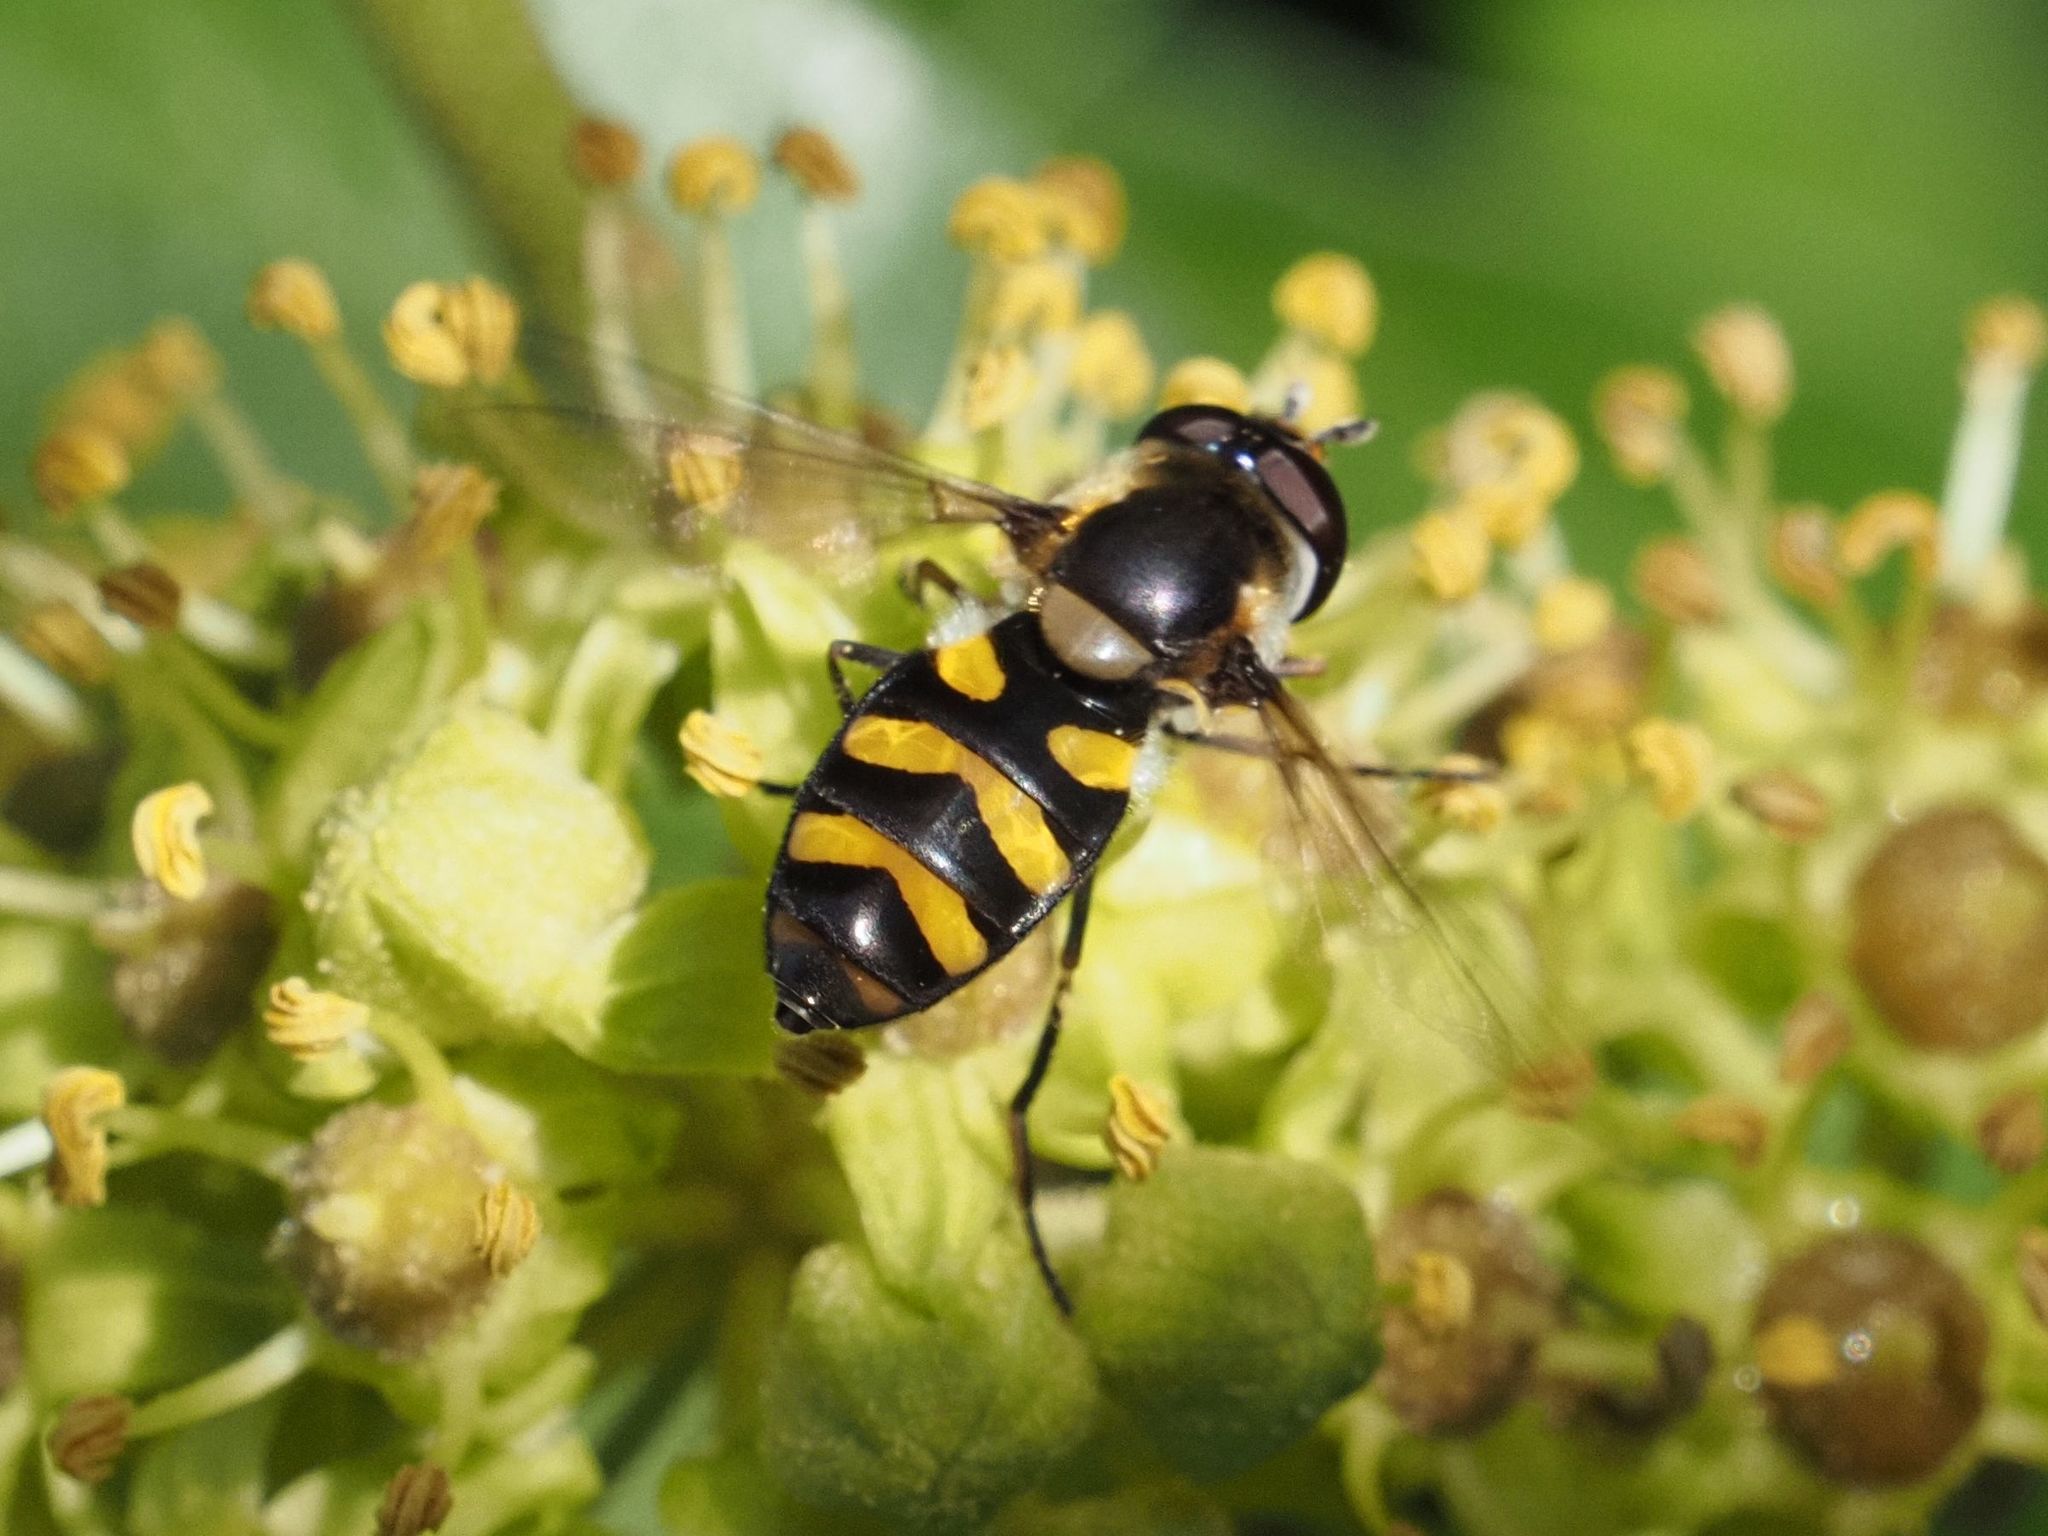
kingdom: Animalia
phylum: Arthropoda
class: Insecta
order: Diptera
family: Syrphidae
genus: Didea
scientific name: Didea intermedia
